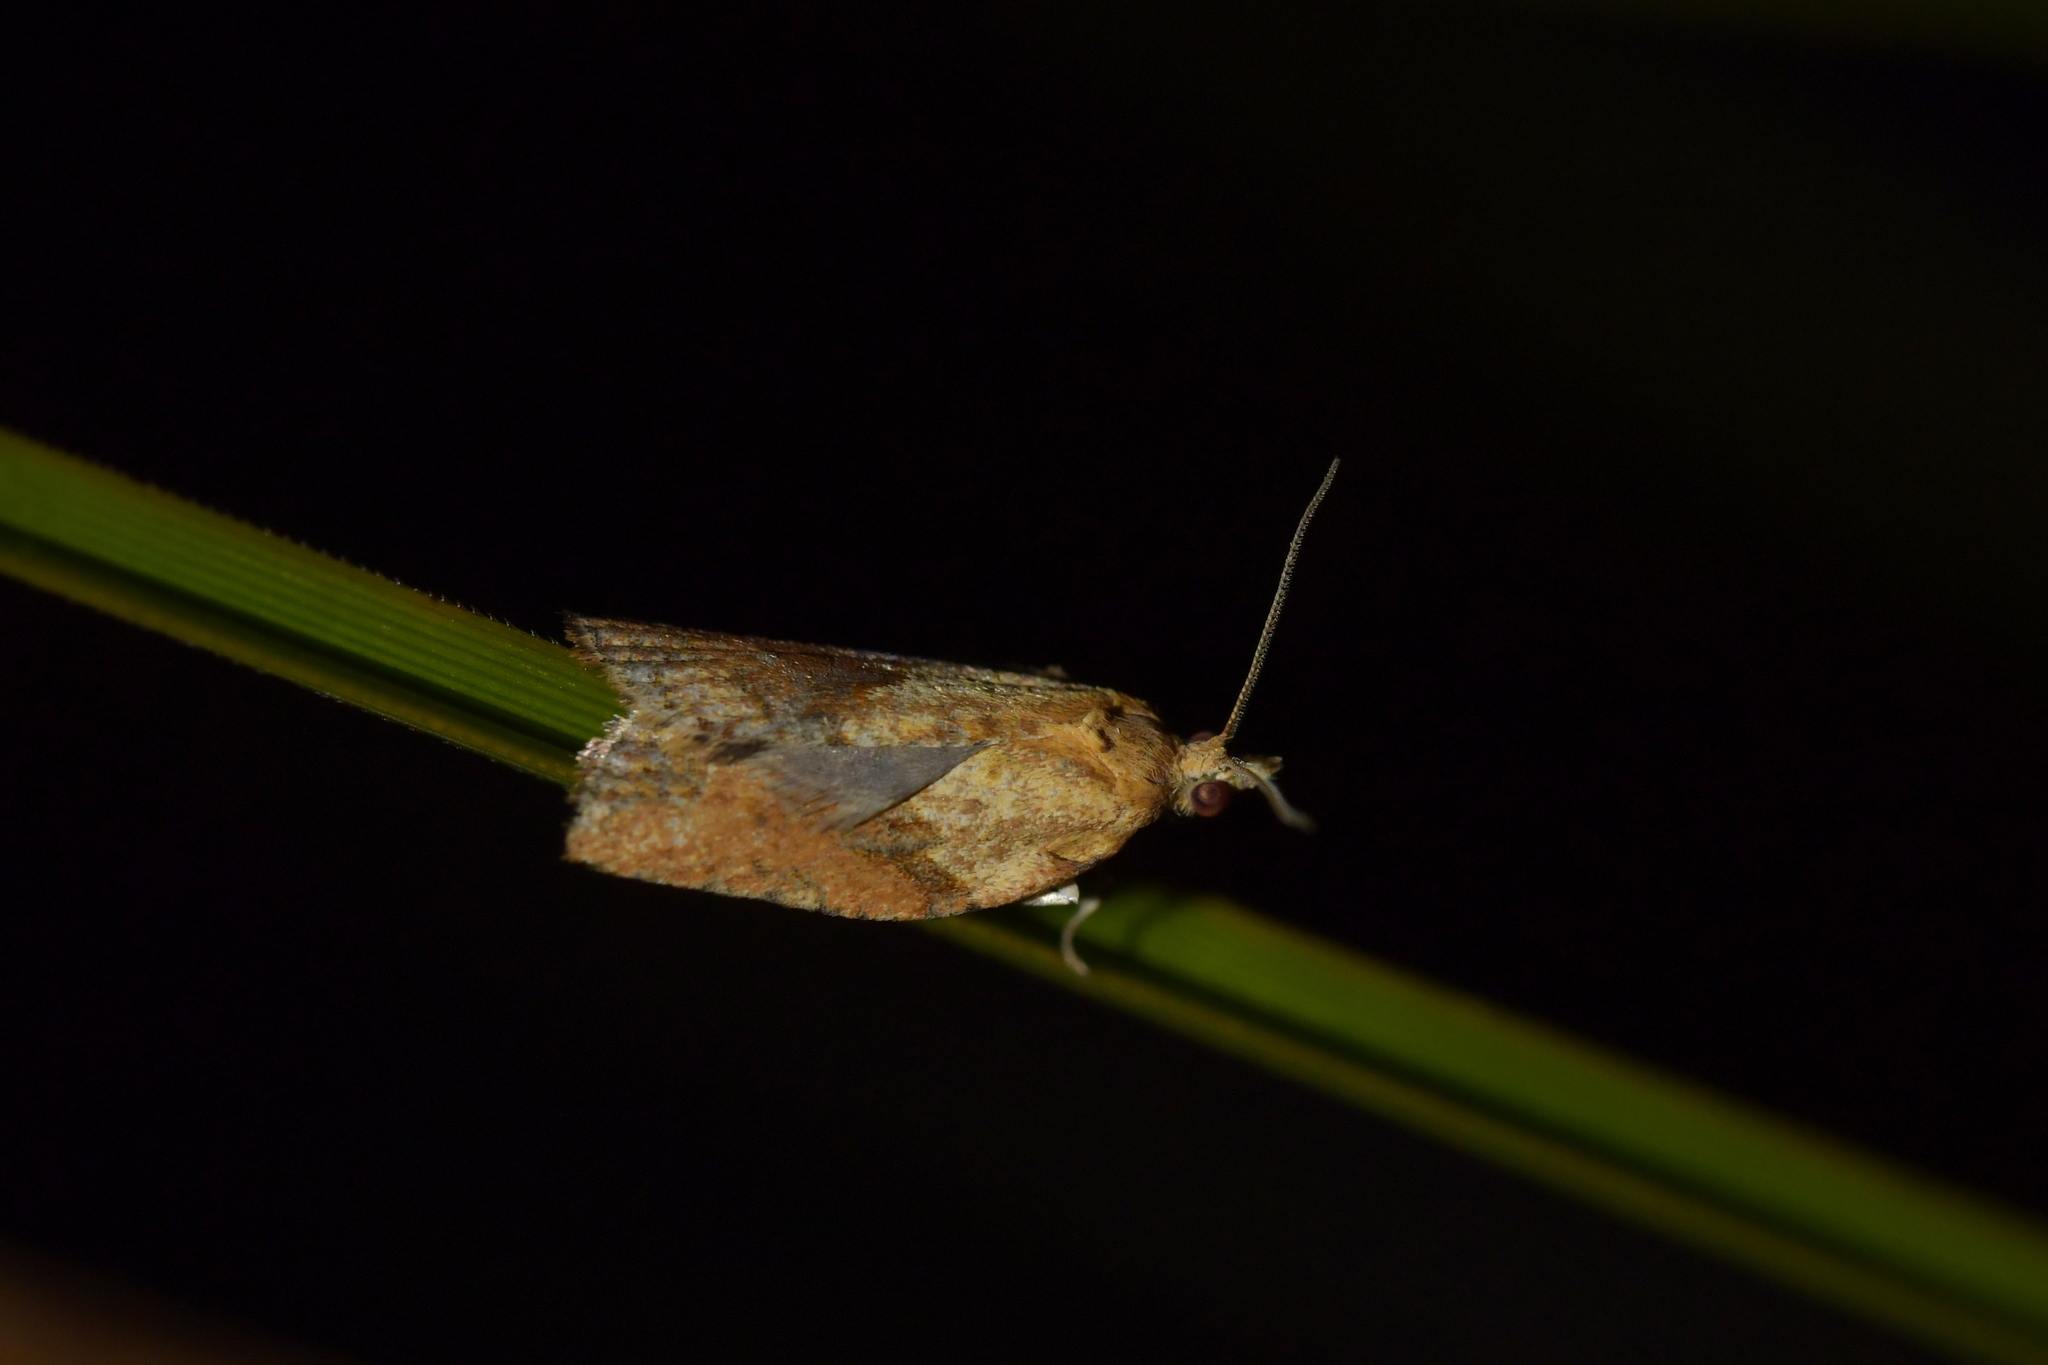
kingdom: Animalia
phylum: Arthropoda
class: Insecta
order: Lepidoptera
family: Tortricidae
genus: Epiphyas
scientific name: Epiphyas postvittana
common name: Light brown apple moth
